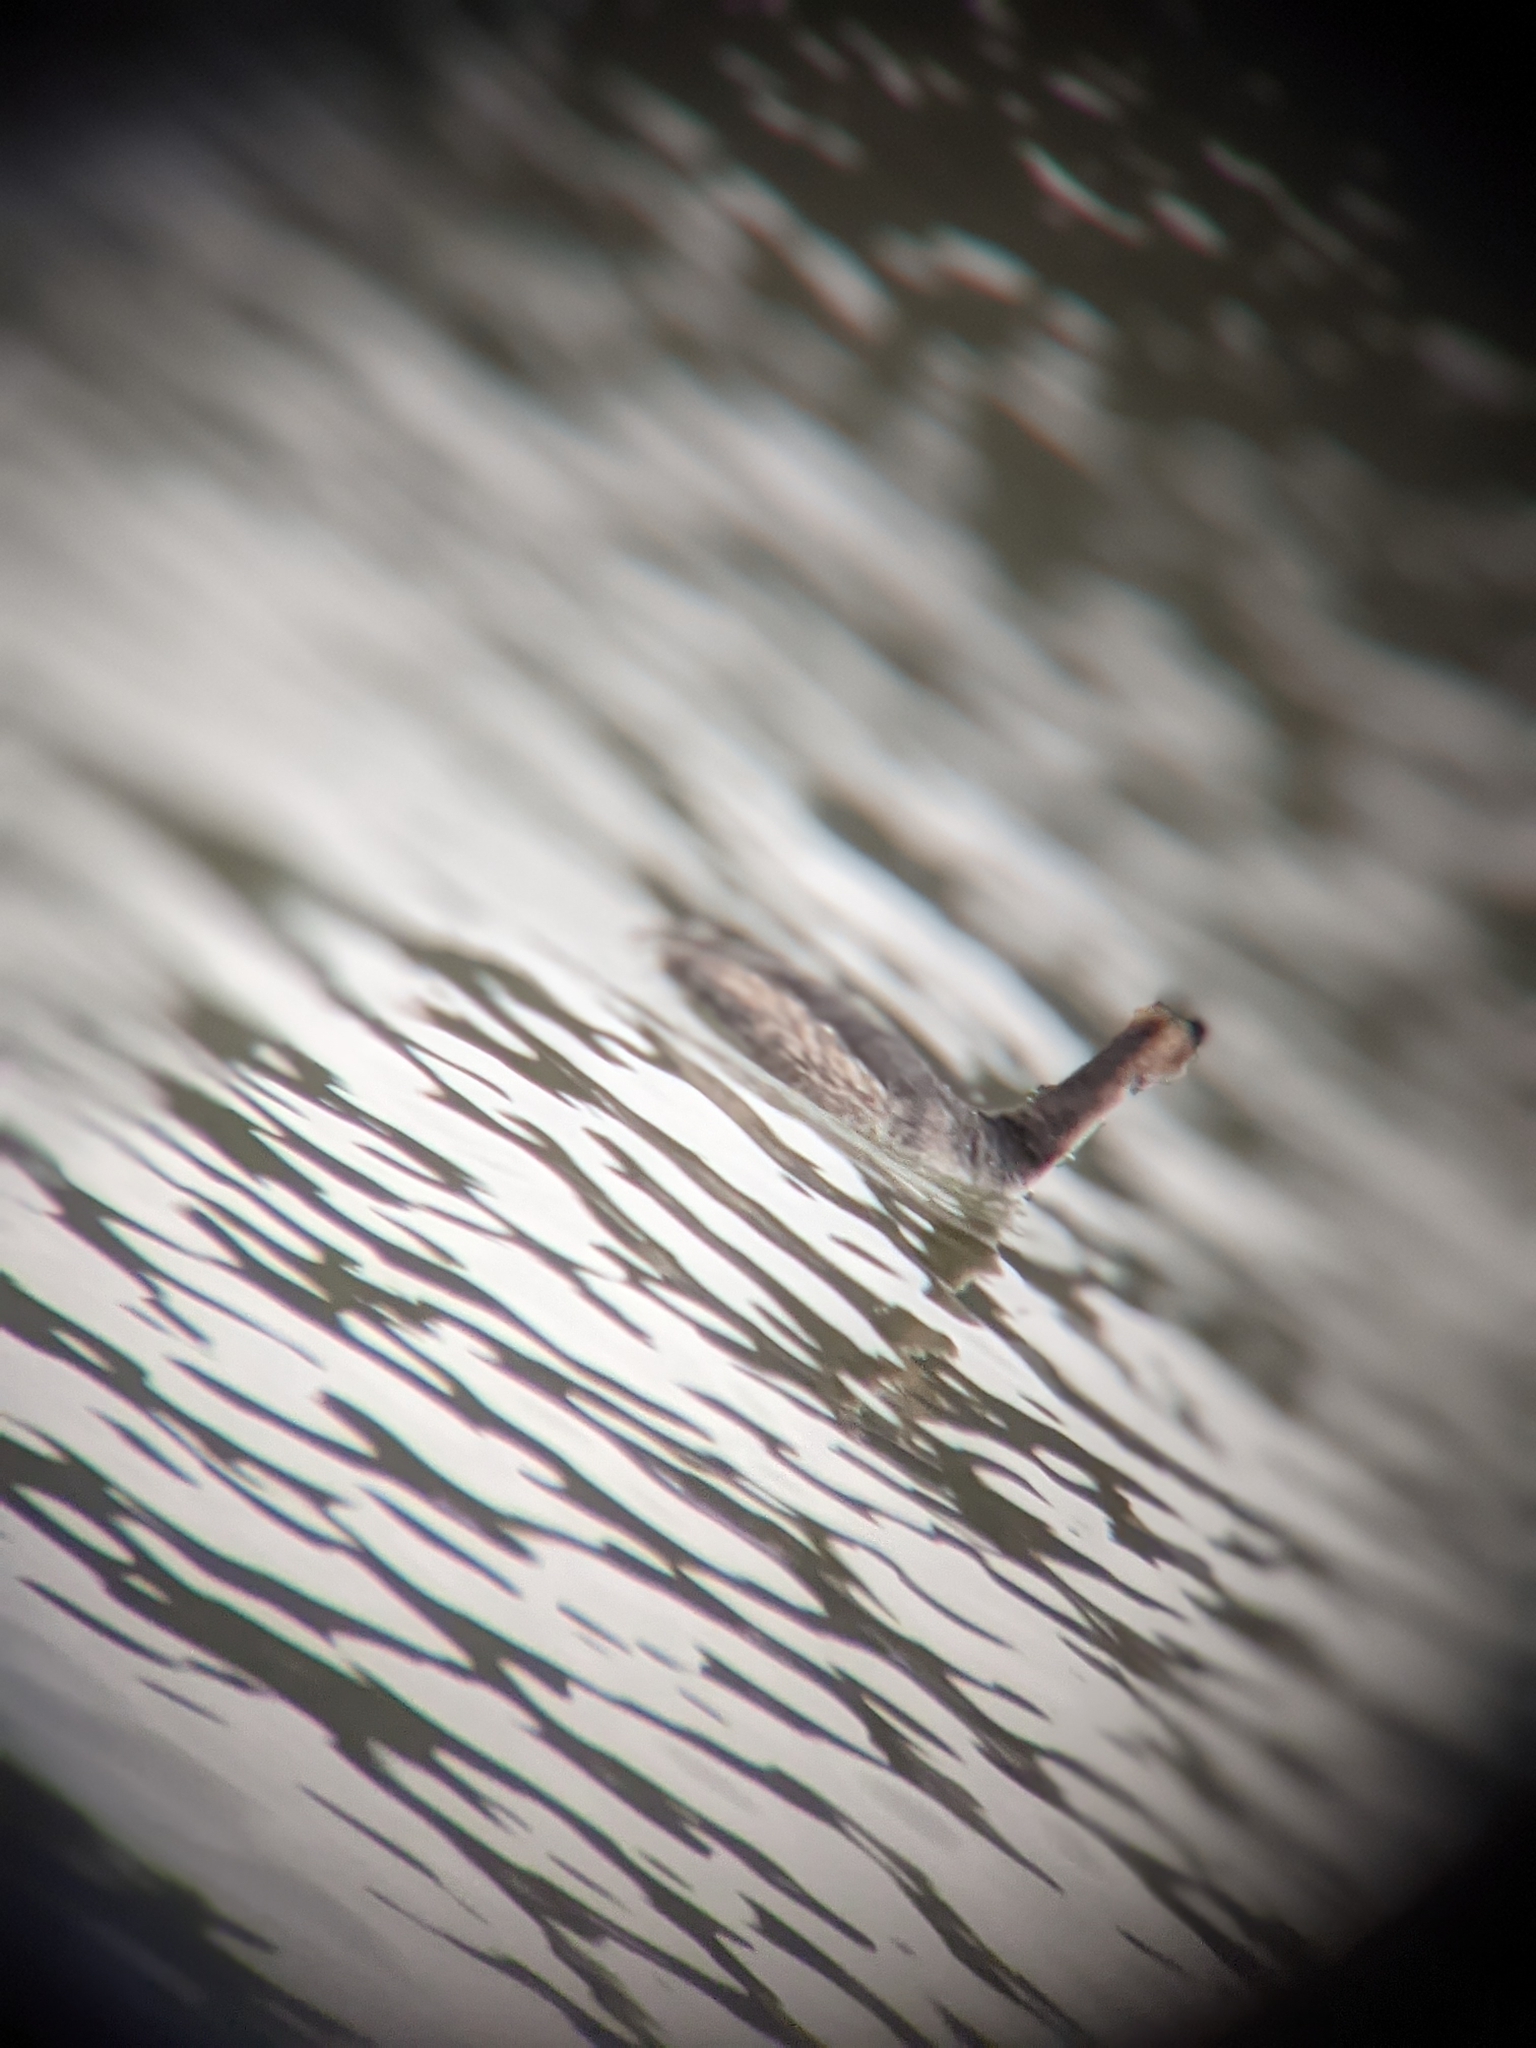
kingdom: Animalia
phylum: Chordata
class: Aves
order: Podicipediformes
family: Podicipedidae
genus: Podiceps
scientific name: Podiceps cristatus
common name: Great crested grebe
